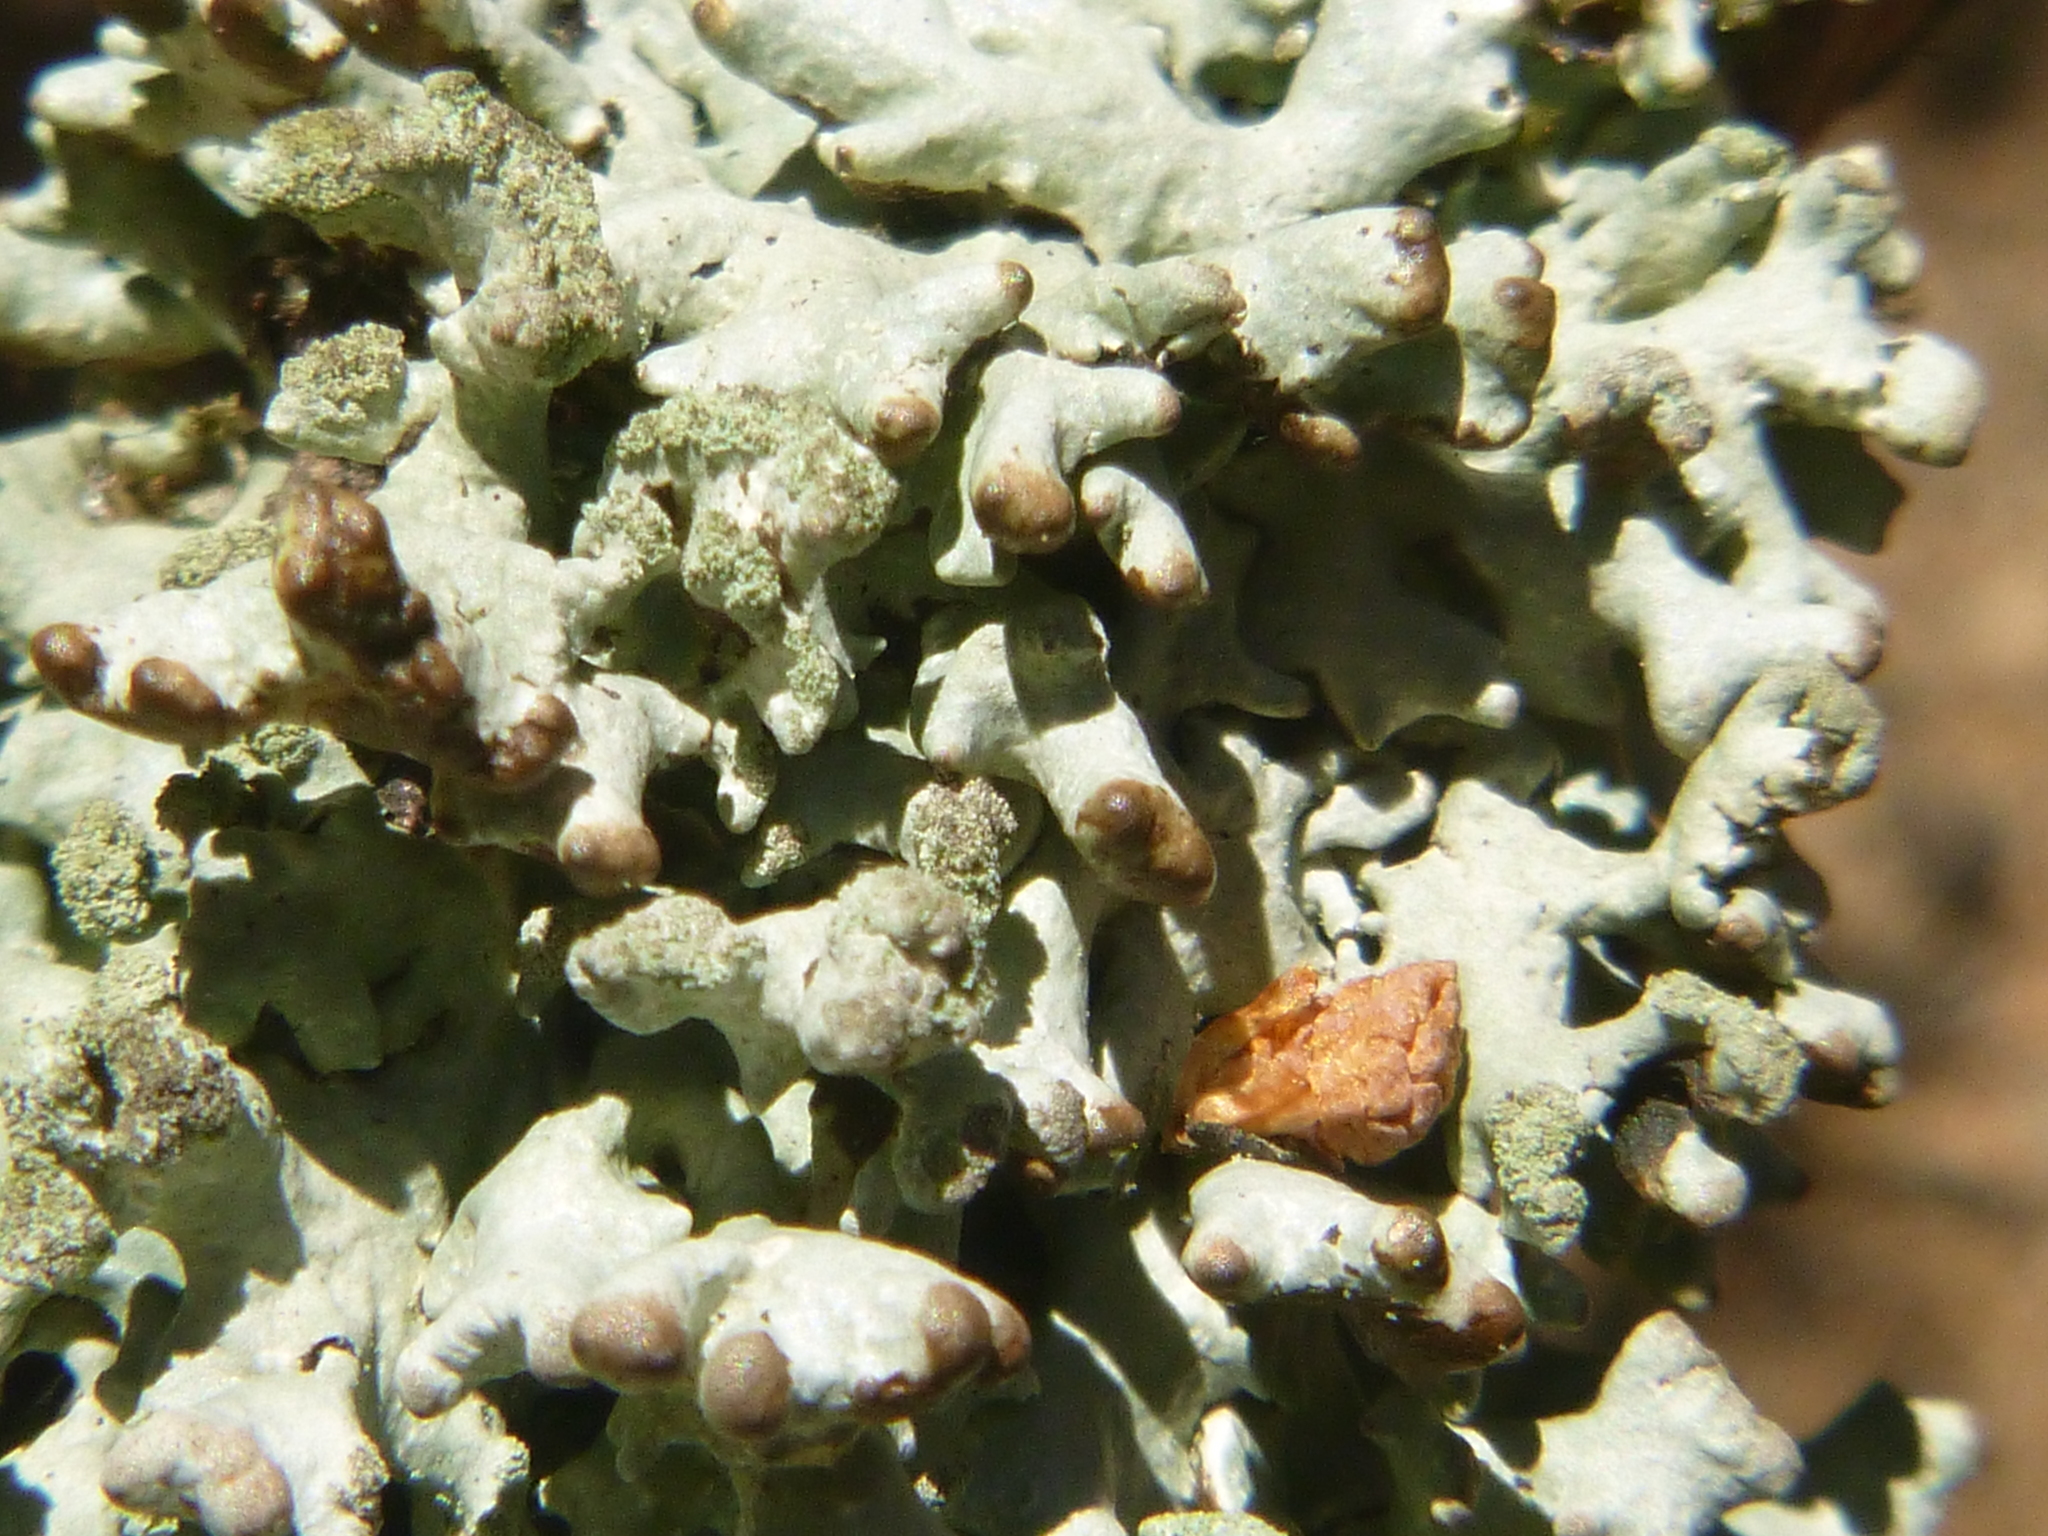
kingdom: Fungi
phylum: Ascomycota
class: Lecanoromycetes
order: Lecanorales
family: Parmeliaceae
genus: Hypogymnia
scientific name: Hypogymnia tubulosa
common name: Powder-headed tube lichen
